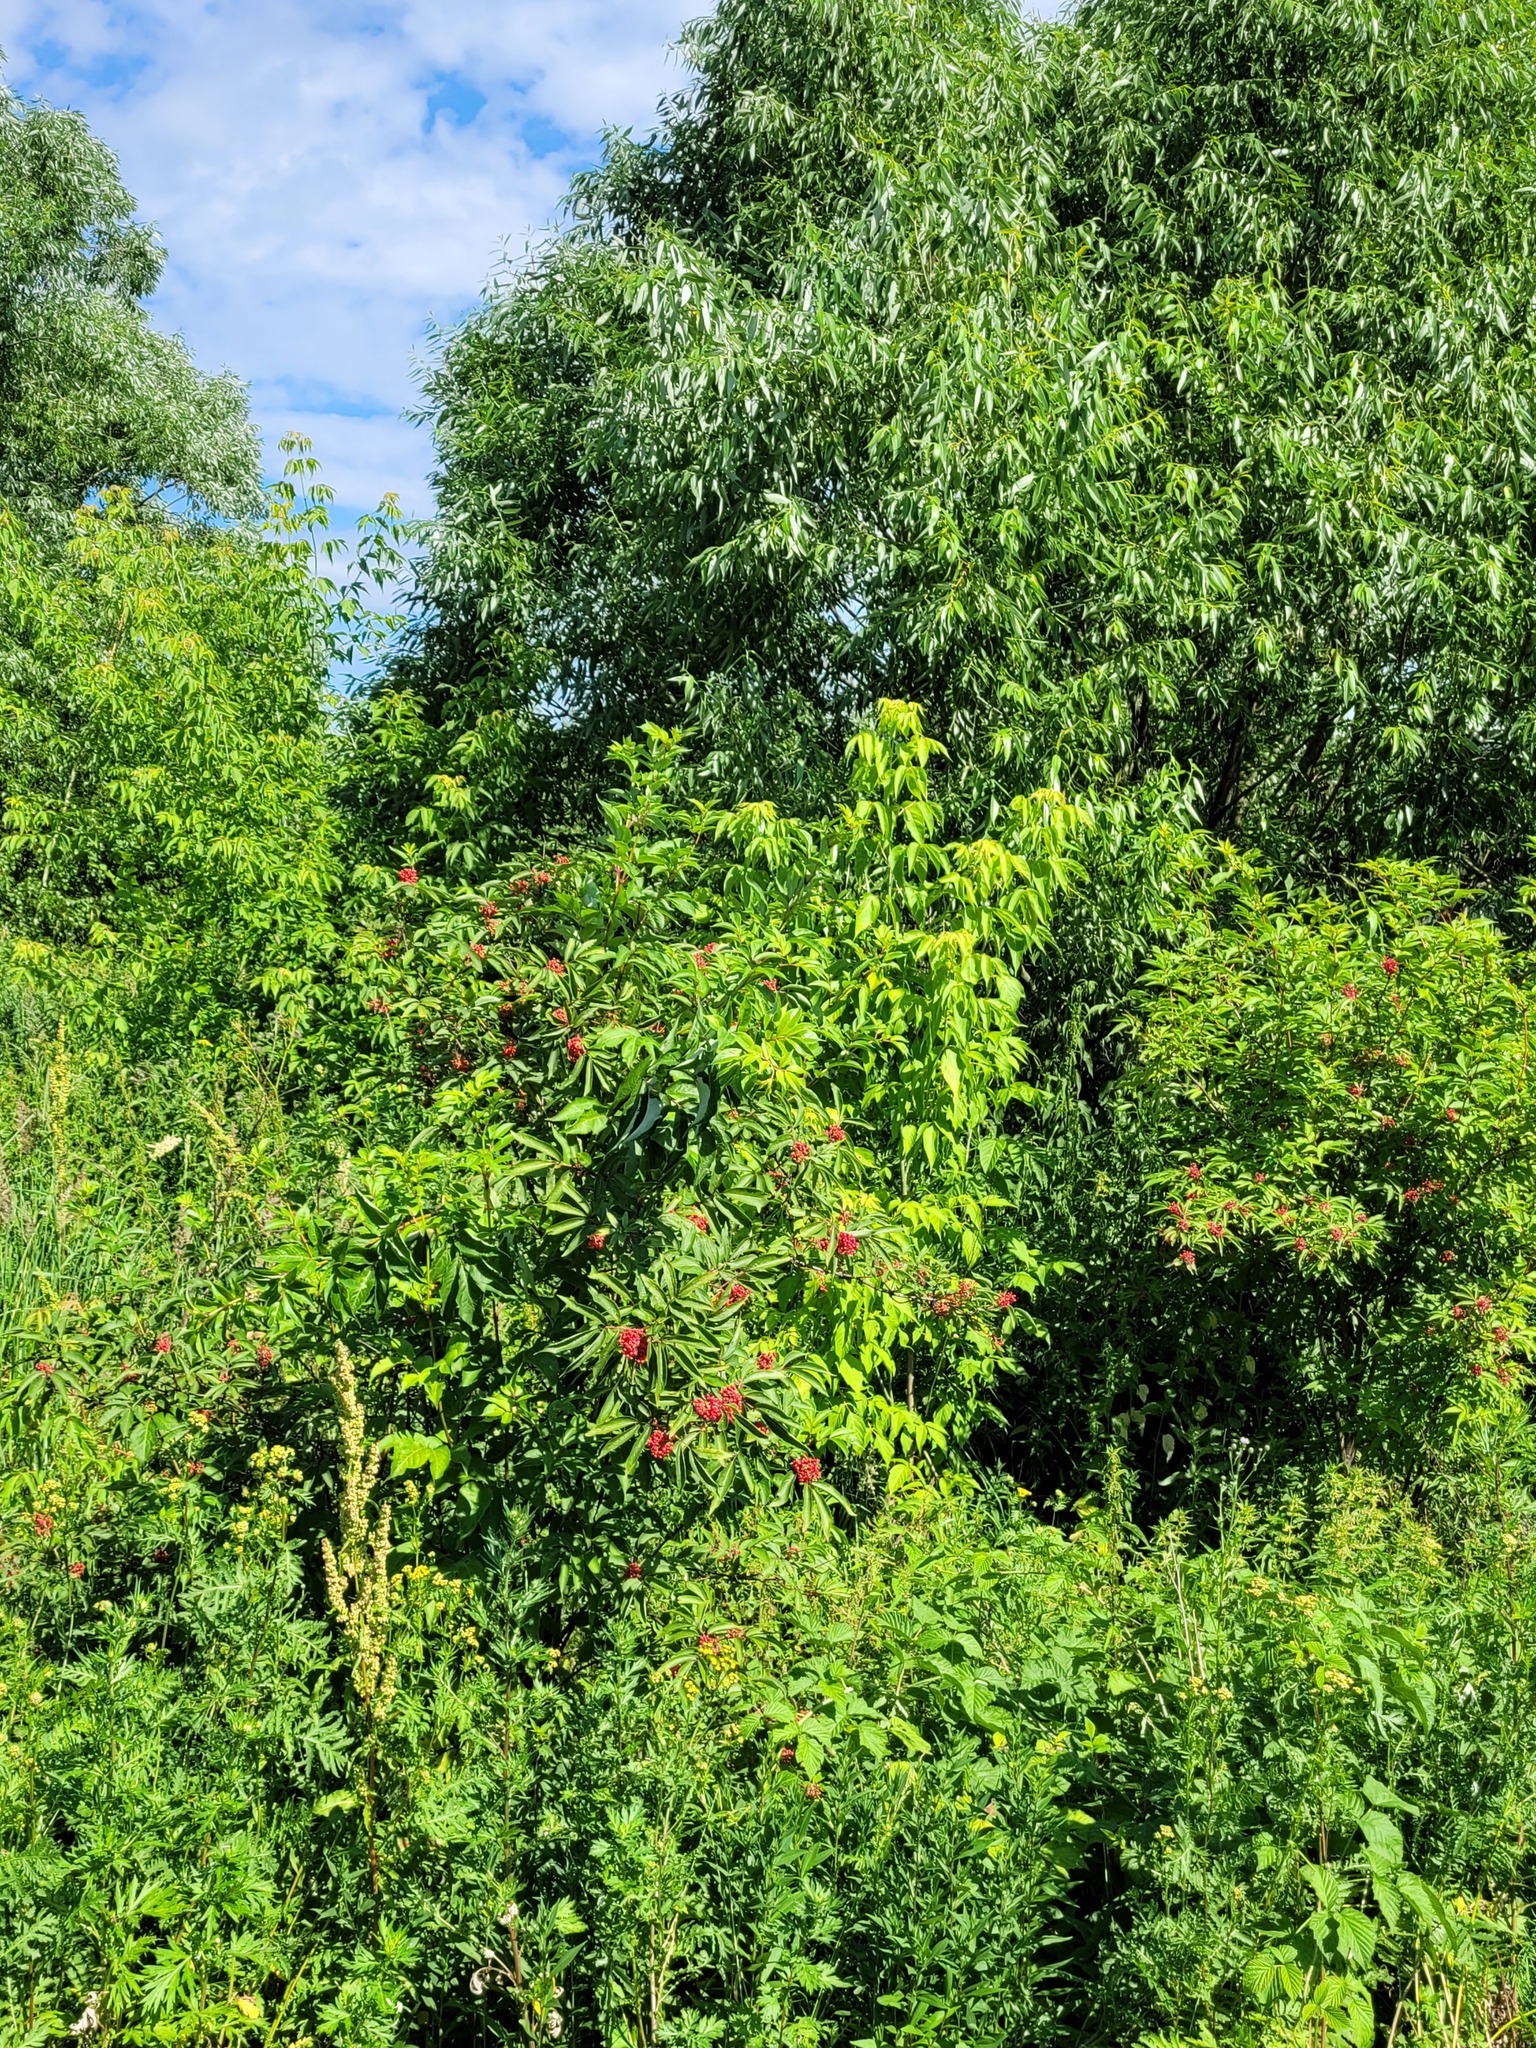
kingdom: Plantae
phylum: Tracheophyta
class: Magnoliopsida
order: Dipsacales
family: Viburnaceae
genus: Sambucus
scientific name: Sambucus racemosa
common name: Red-berried elder
